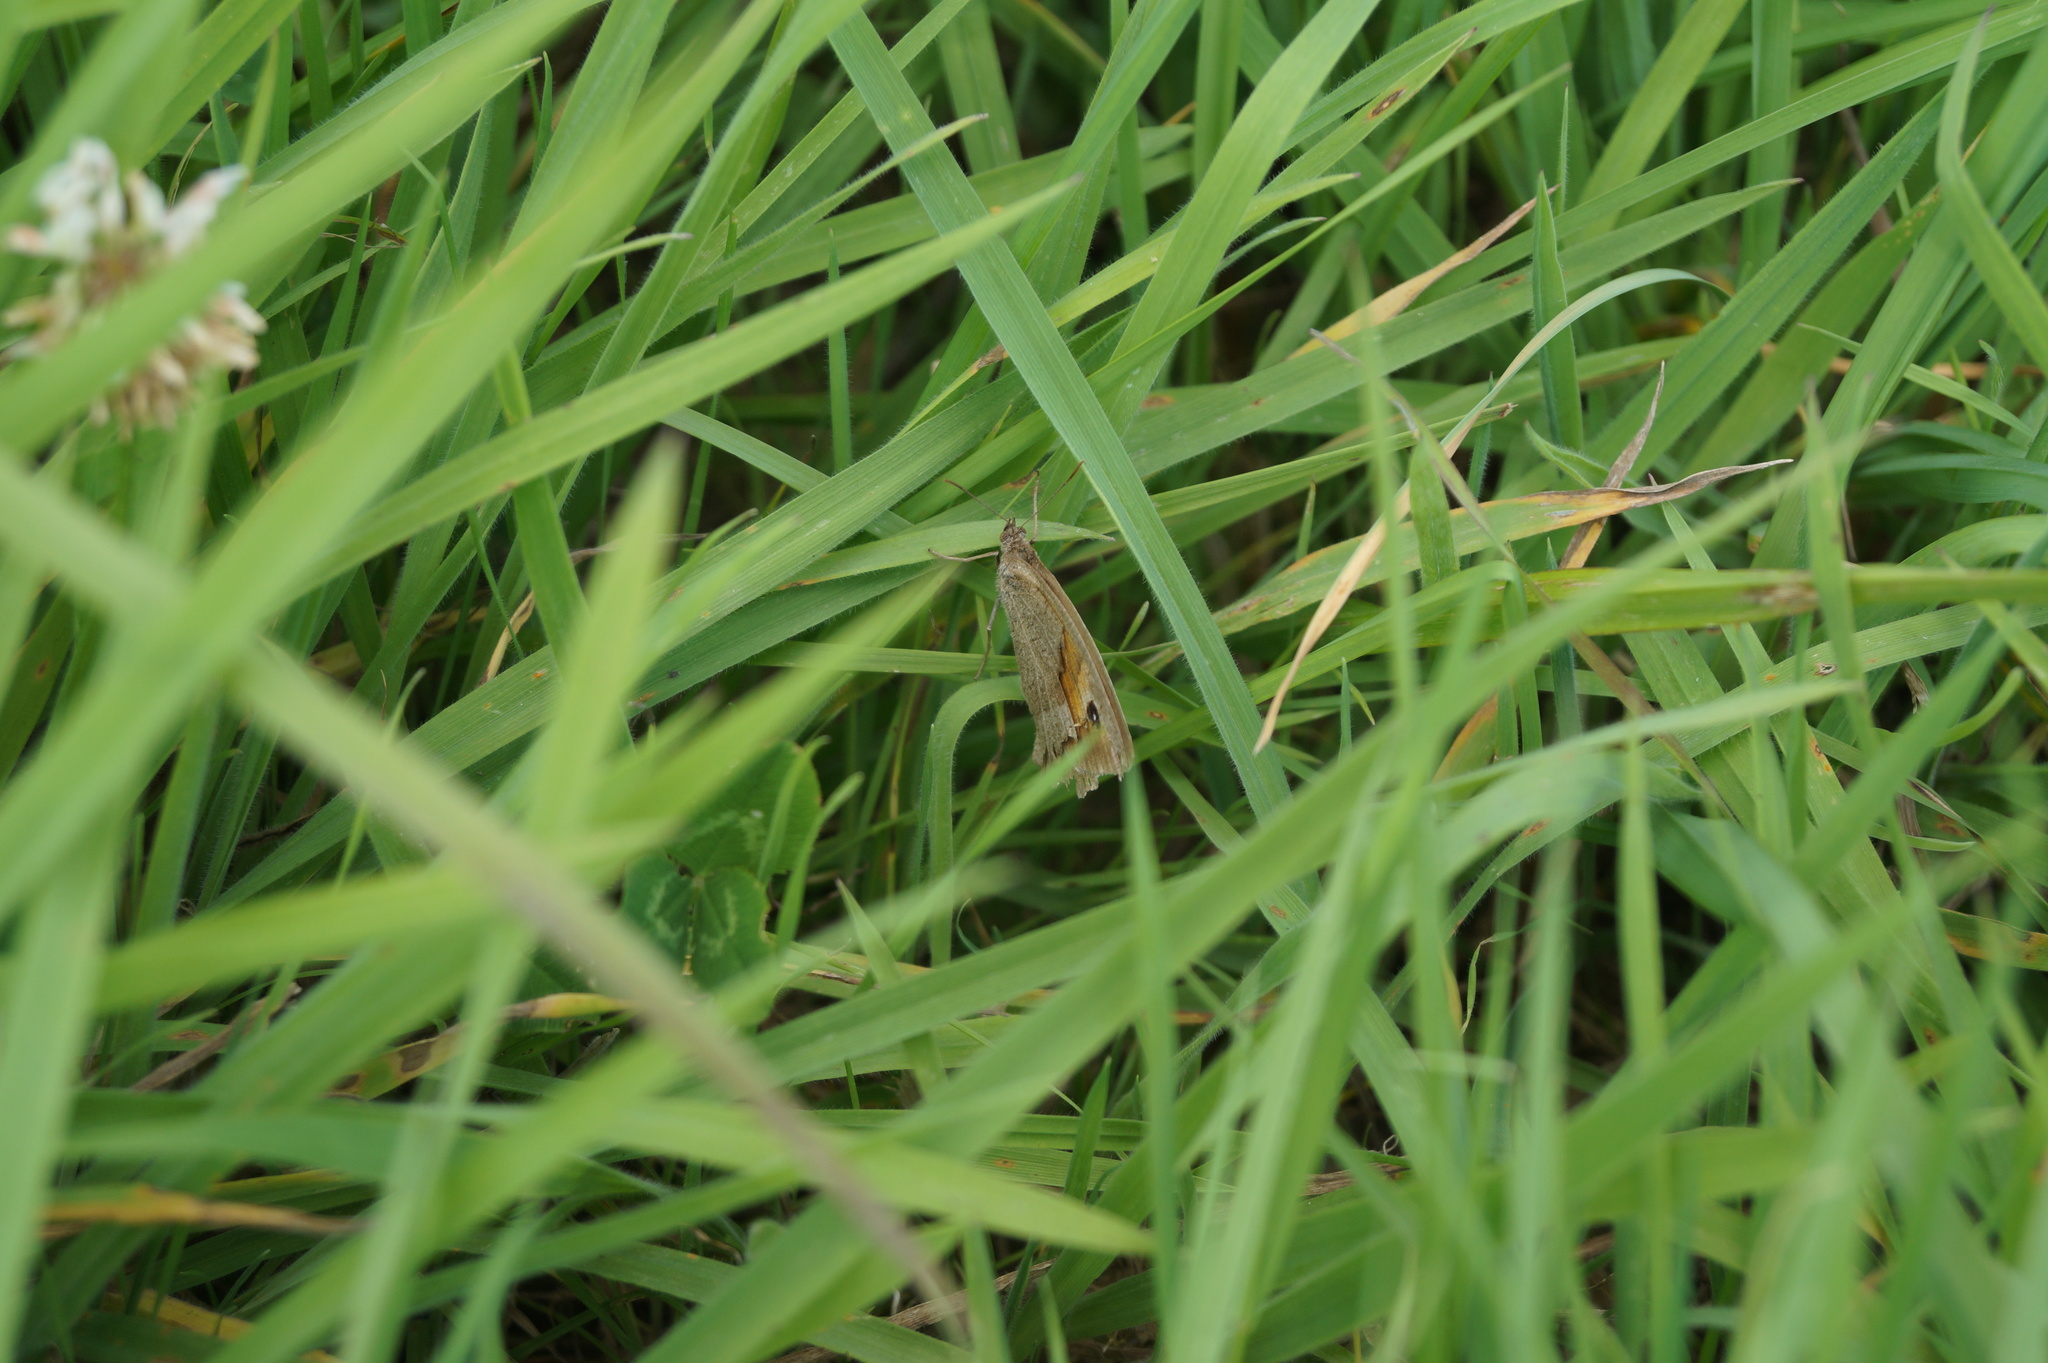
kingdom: Animalia
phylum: Arthropoda
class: Insecta
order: Lepidoptera
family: Nymphalidae
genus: Maniola
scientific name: Maniola jurtina
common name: Meadow brown
